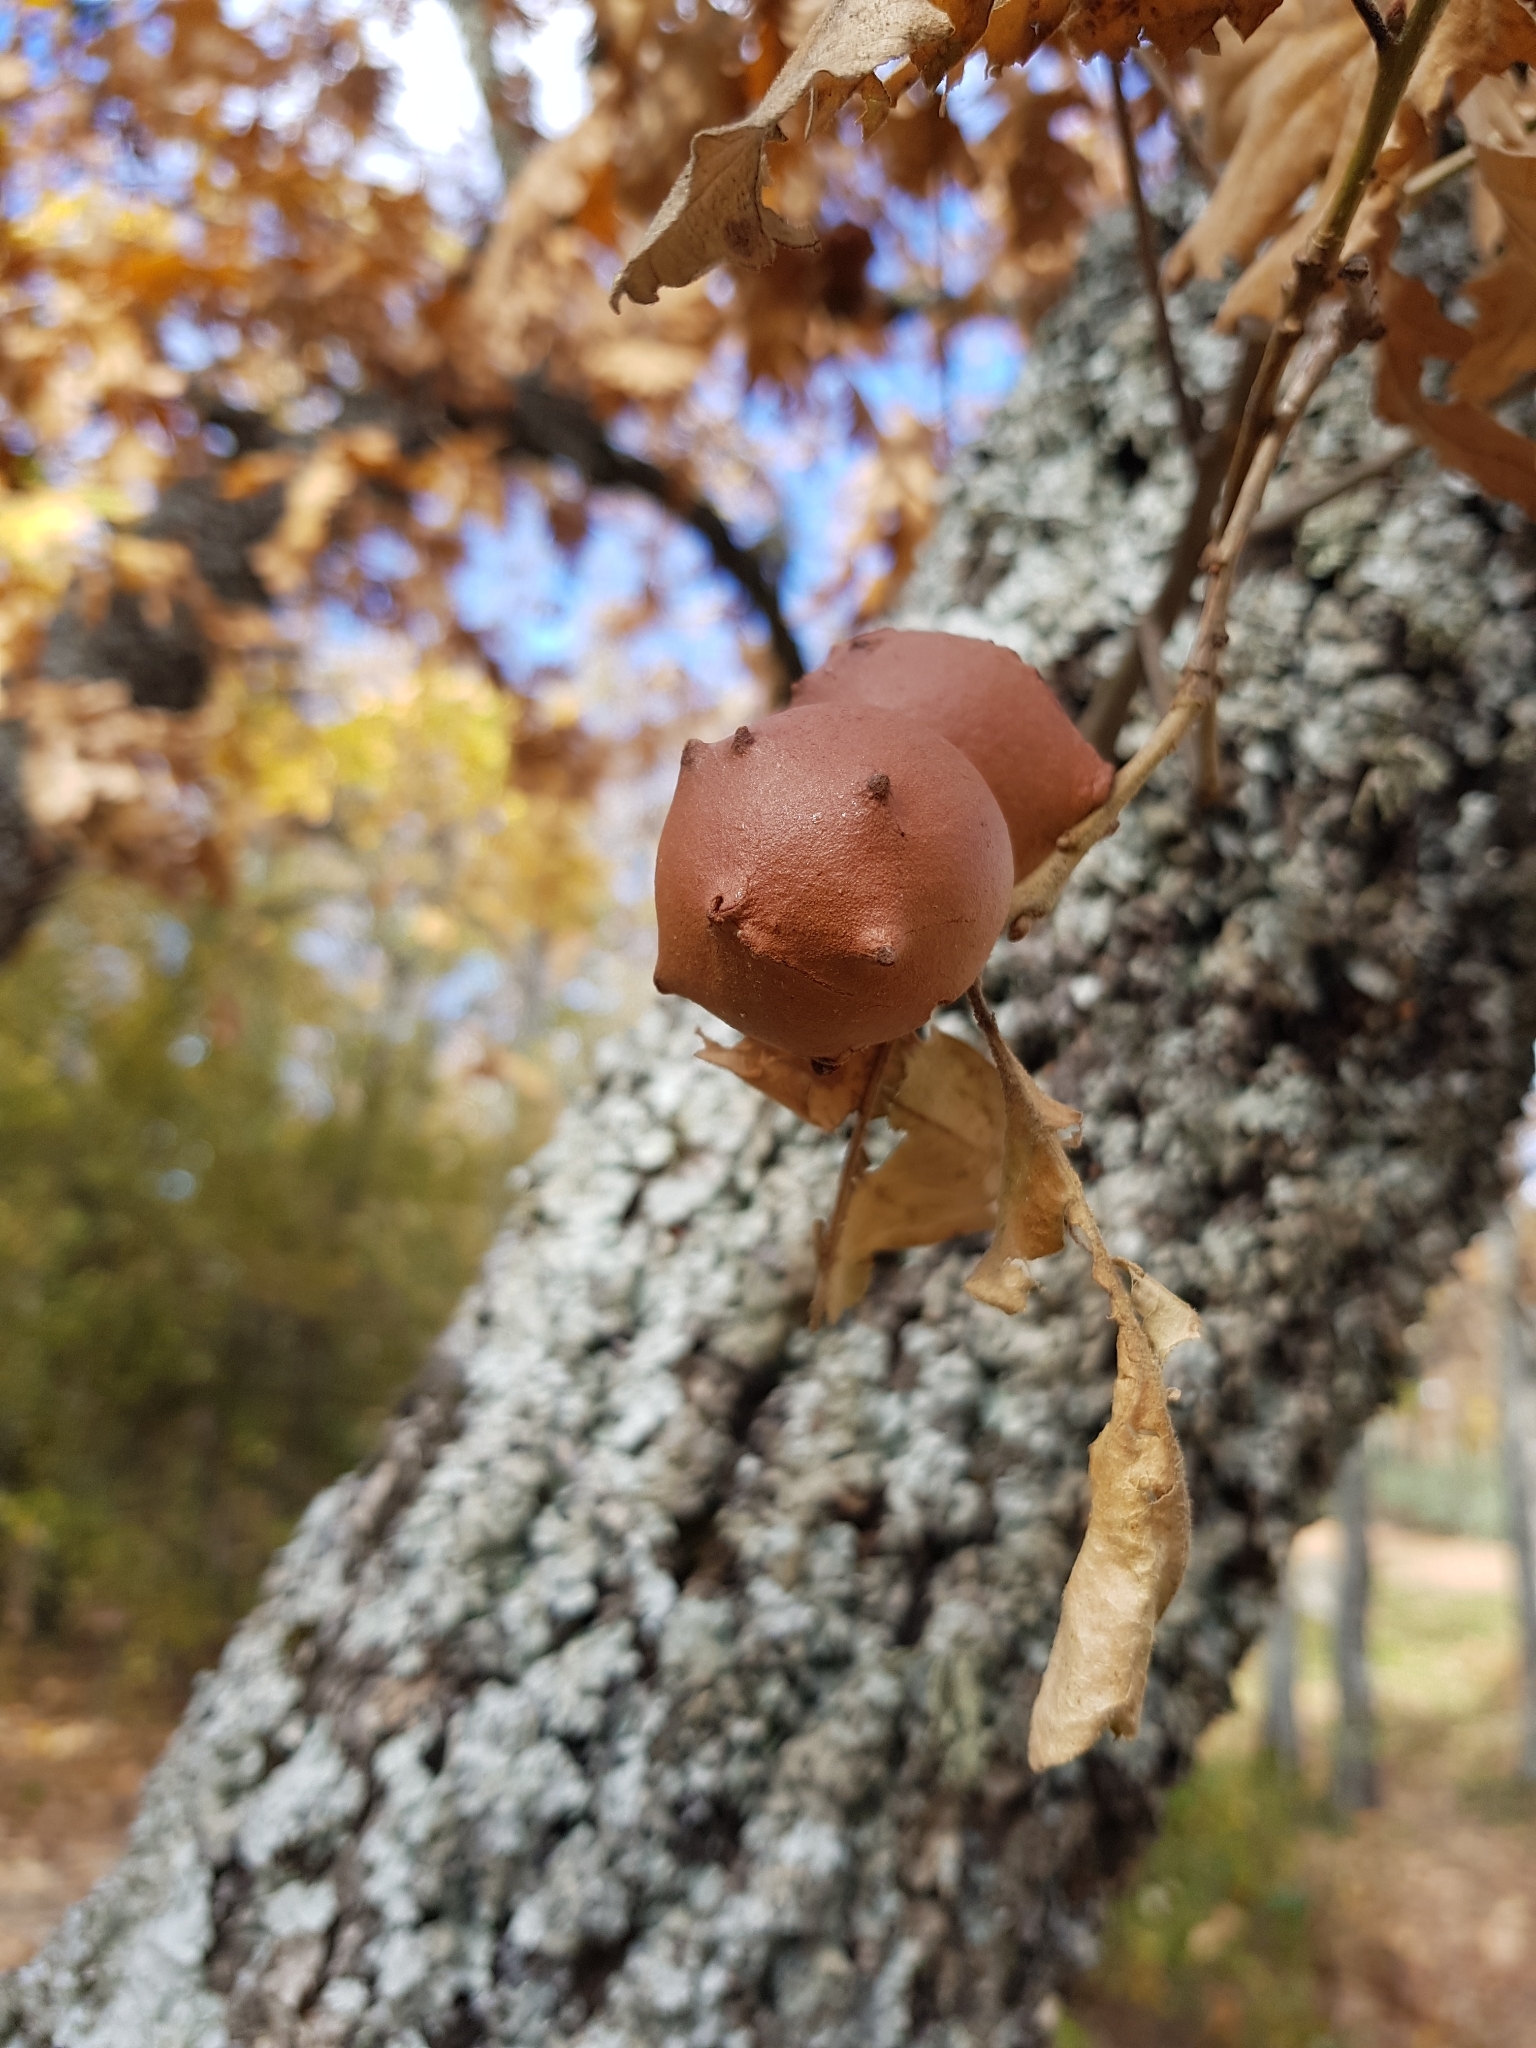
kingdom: Animalia
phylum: Arthropoda
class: Insecta
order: Hymenoptera
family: Cynipidae
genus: Andricus
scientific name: Andricus quercustozae
